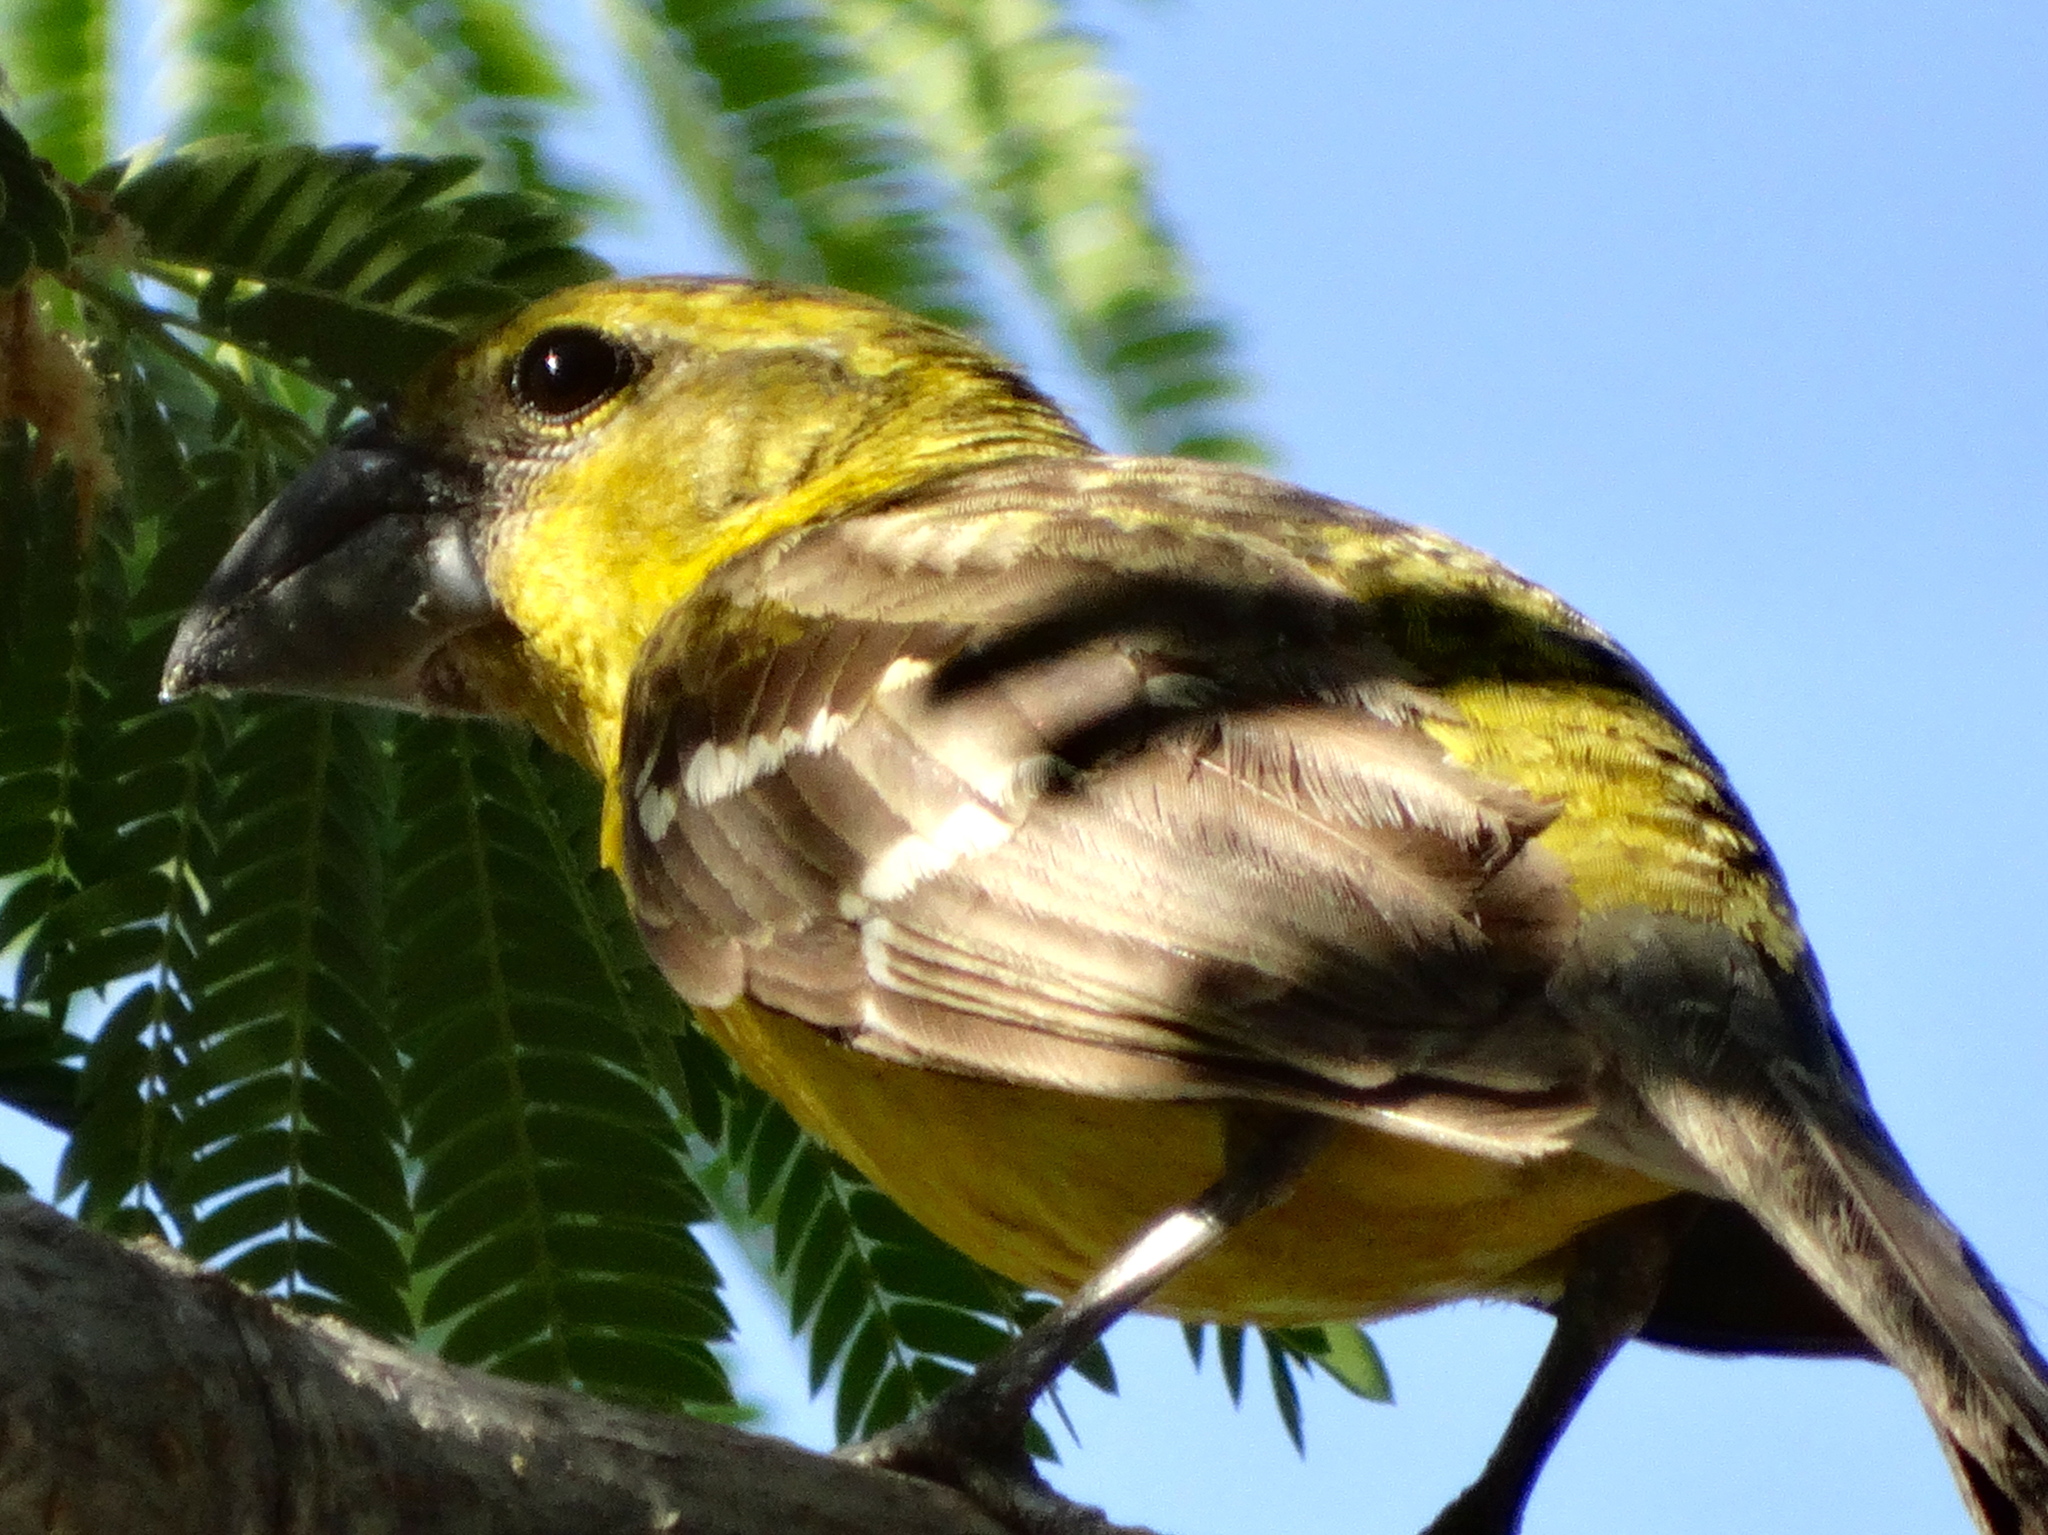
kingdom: Animalia
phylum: Chordata
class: Aves
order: Passeriformes
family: Cardinalidae
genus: Pheucticus
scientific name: Pheucticus chrysopeplus
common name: Yellow grosbeak
